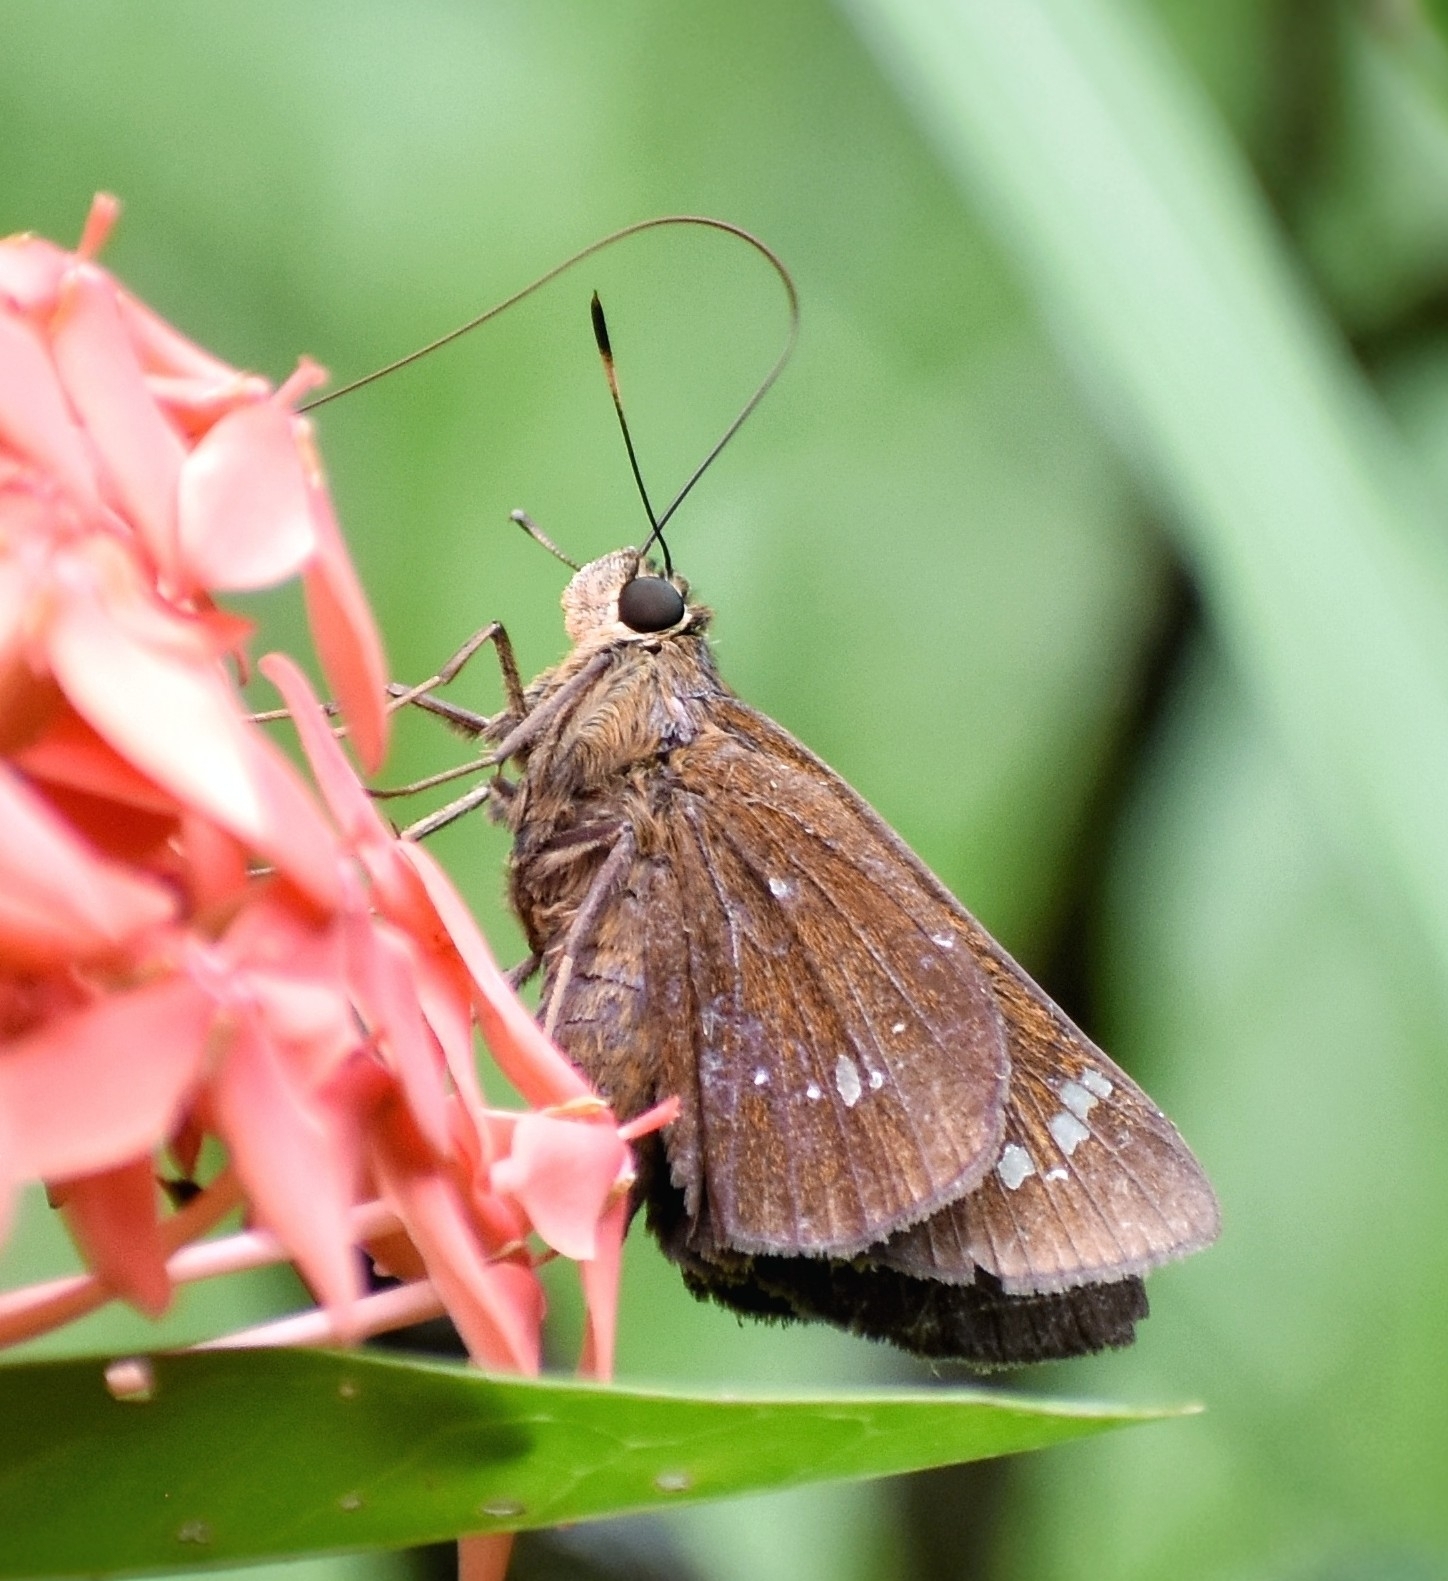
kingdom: Animalia
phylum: Arthropoda
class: Insecta
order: Lepidoptera
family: Hesperiidae
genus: Pelopidas
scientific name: Pelopidas assamensis
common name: Great swift
